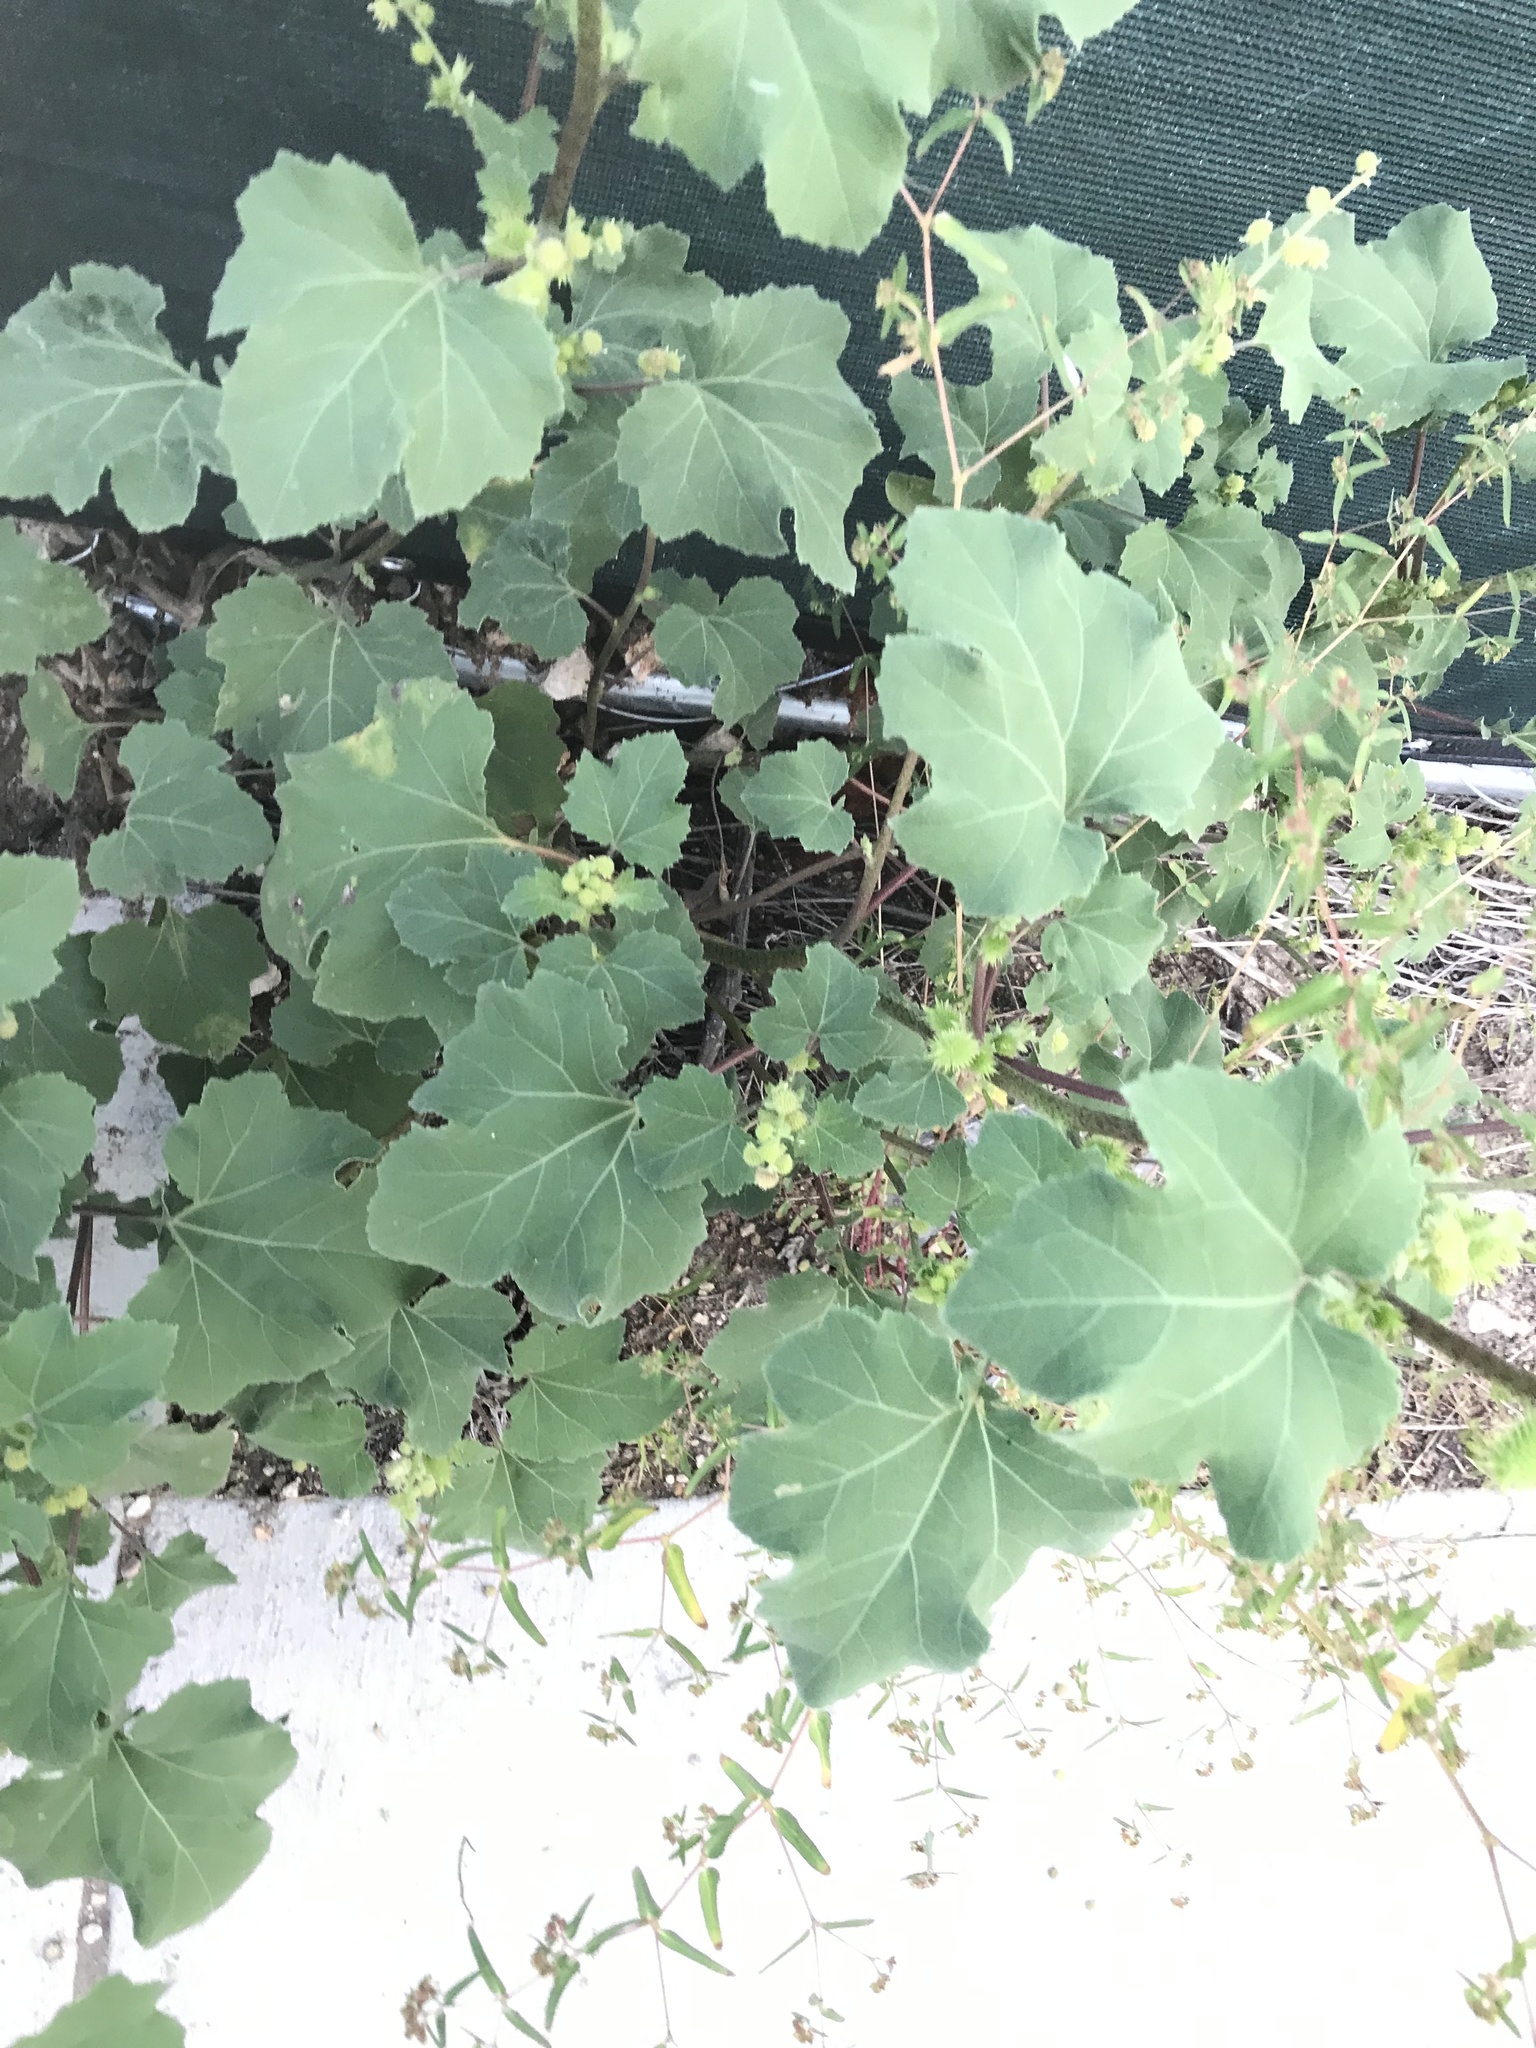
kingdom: Plantae
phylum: Tracheophyta
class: Magnoliopsida
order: Asterales
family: Asteraceae
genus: Xanthium
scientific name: Xanthium strumarium
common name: Rough cocklebur
